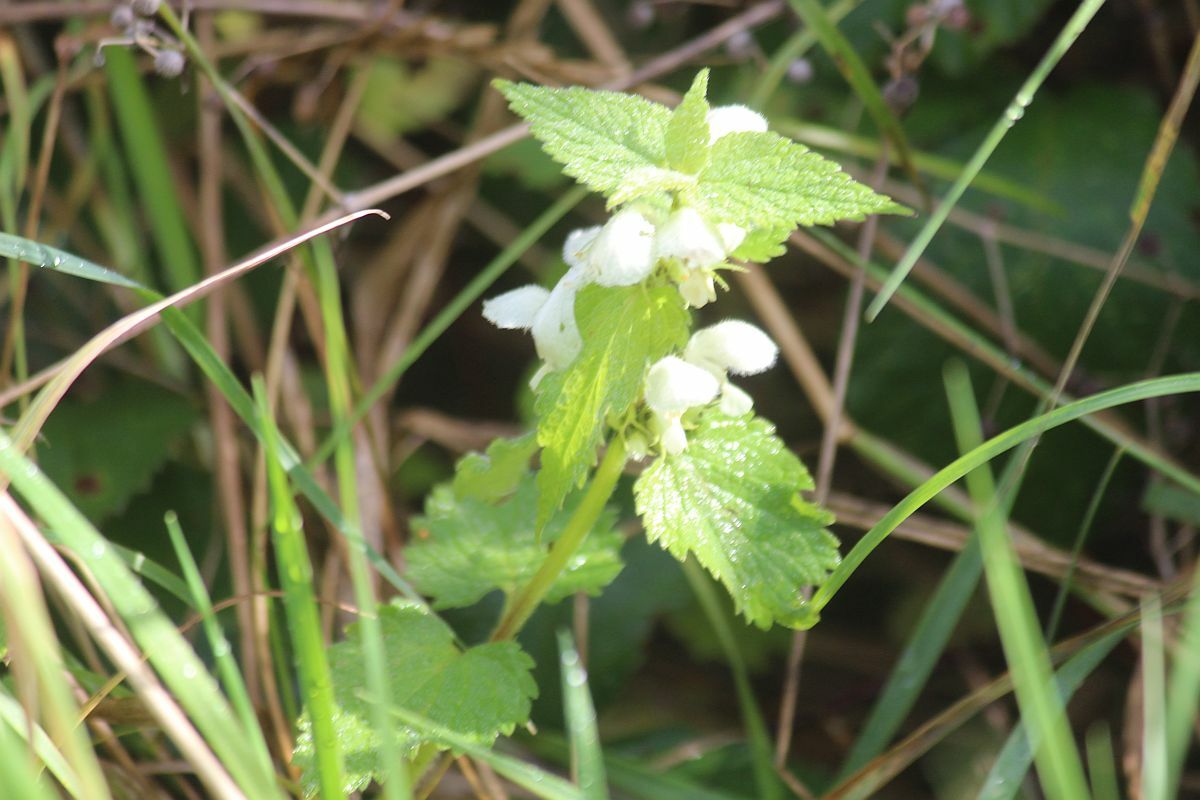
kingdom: Plantae
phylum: Tracheophyta
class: Magnoliopsida
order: Lamiales
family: Lamiaceae
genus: Lamium
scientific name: Lamium album
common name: White dead-nettle
